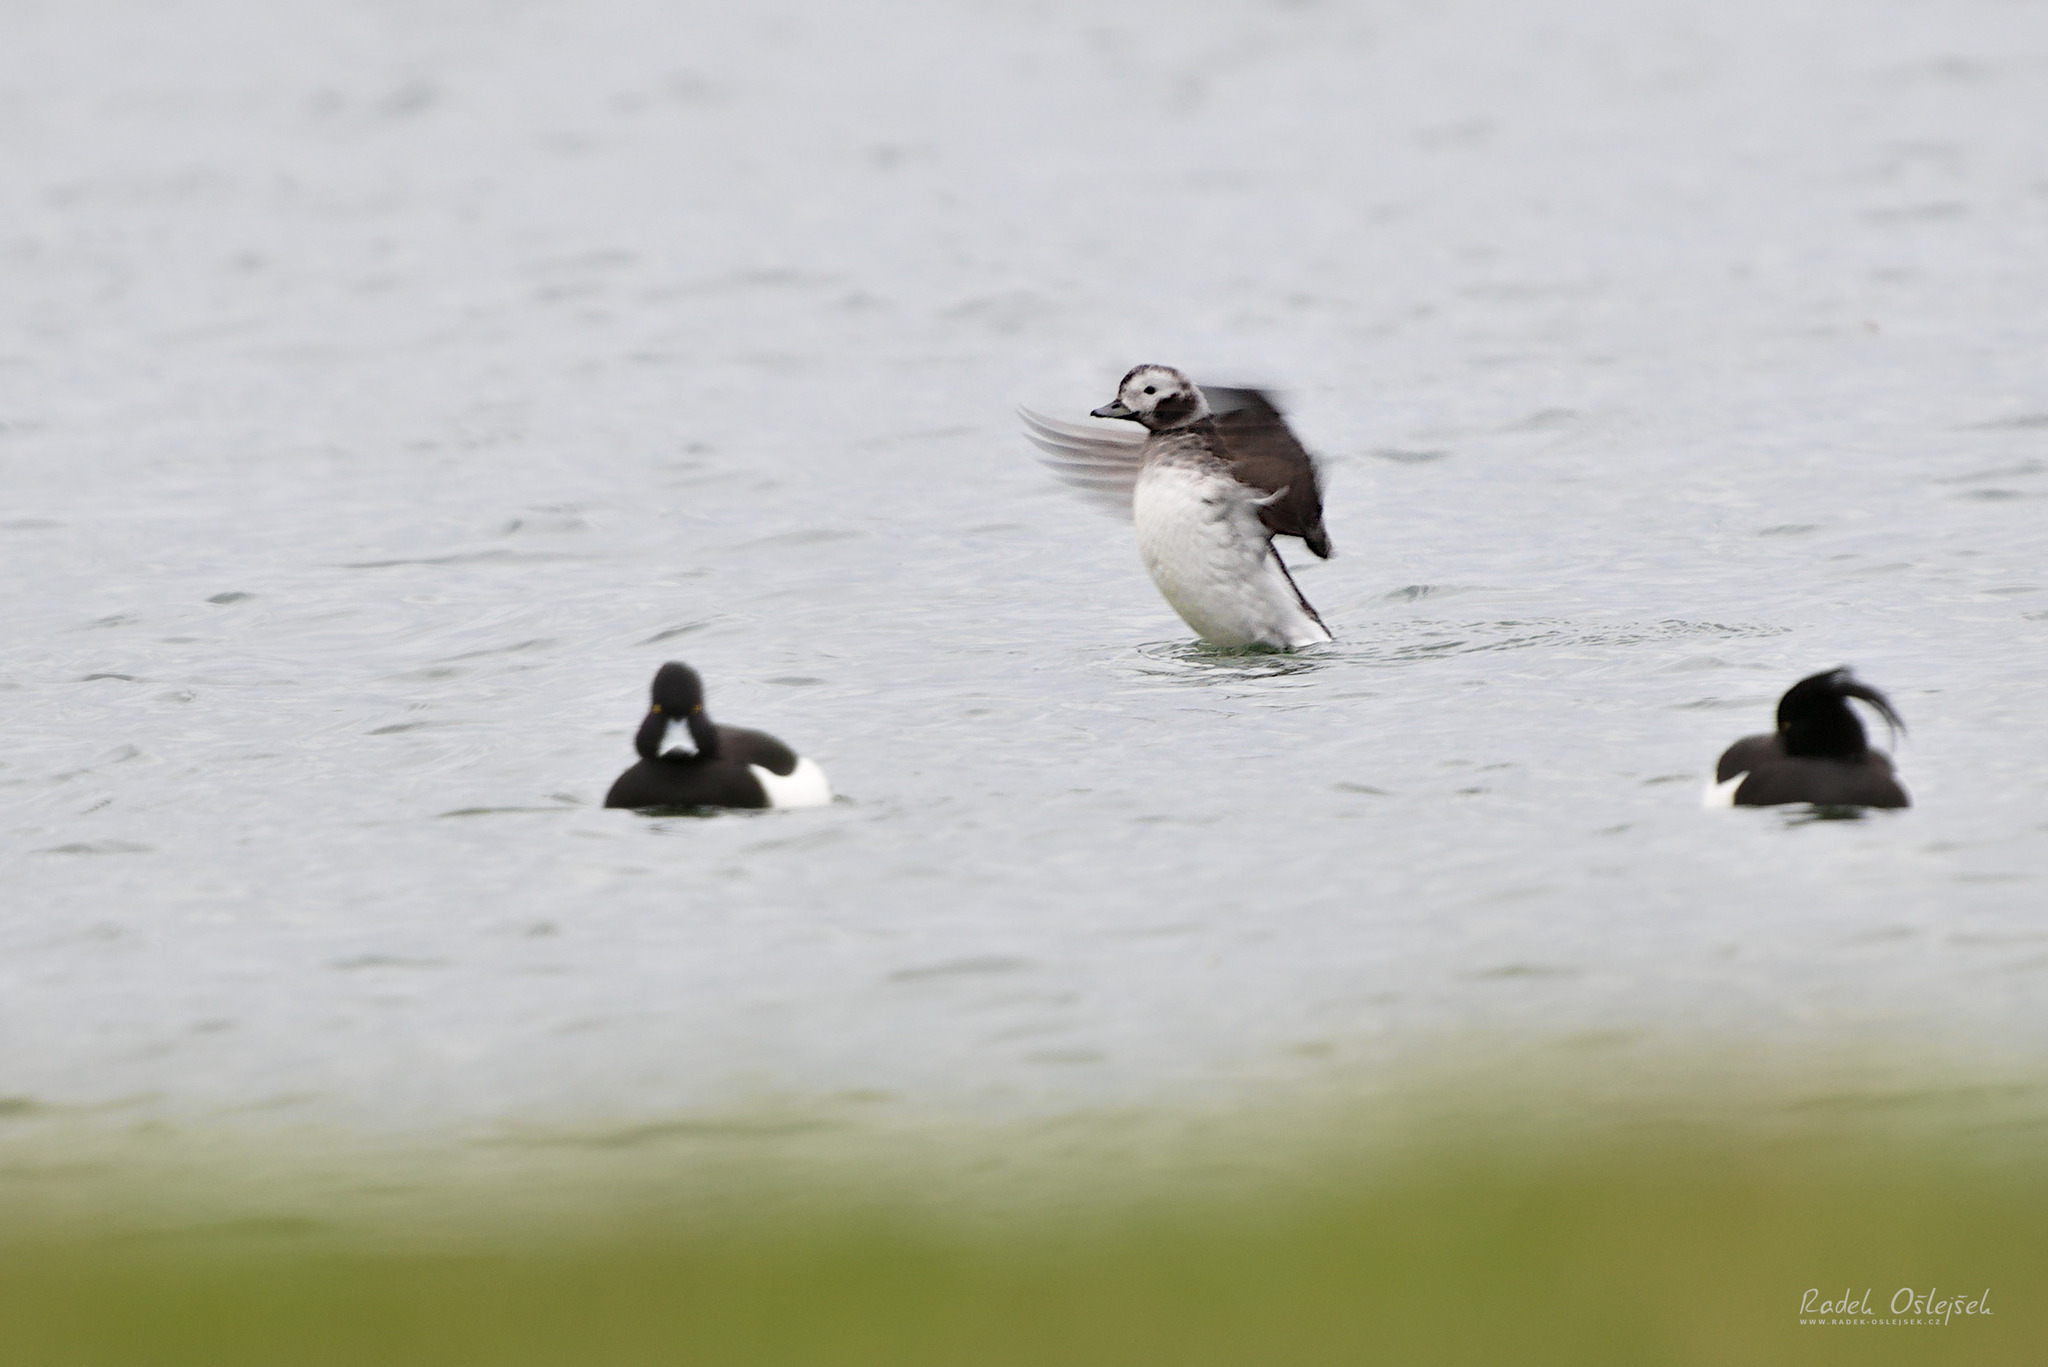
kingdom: Animalia
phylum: Chordata
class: Aves
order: Anseriformes
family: Anatidae
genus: Clangula
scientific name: Clangula hyemalis
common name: Long-tailed duck
